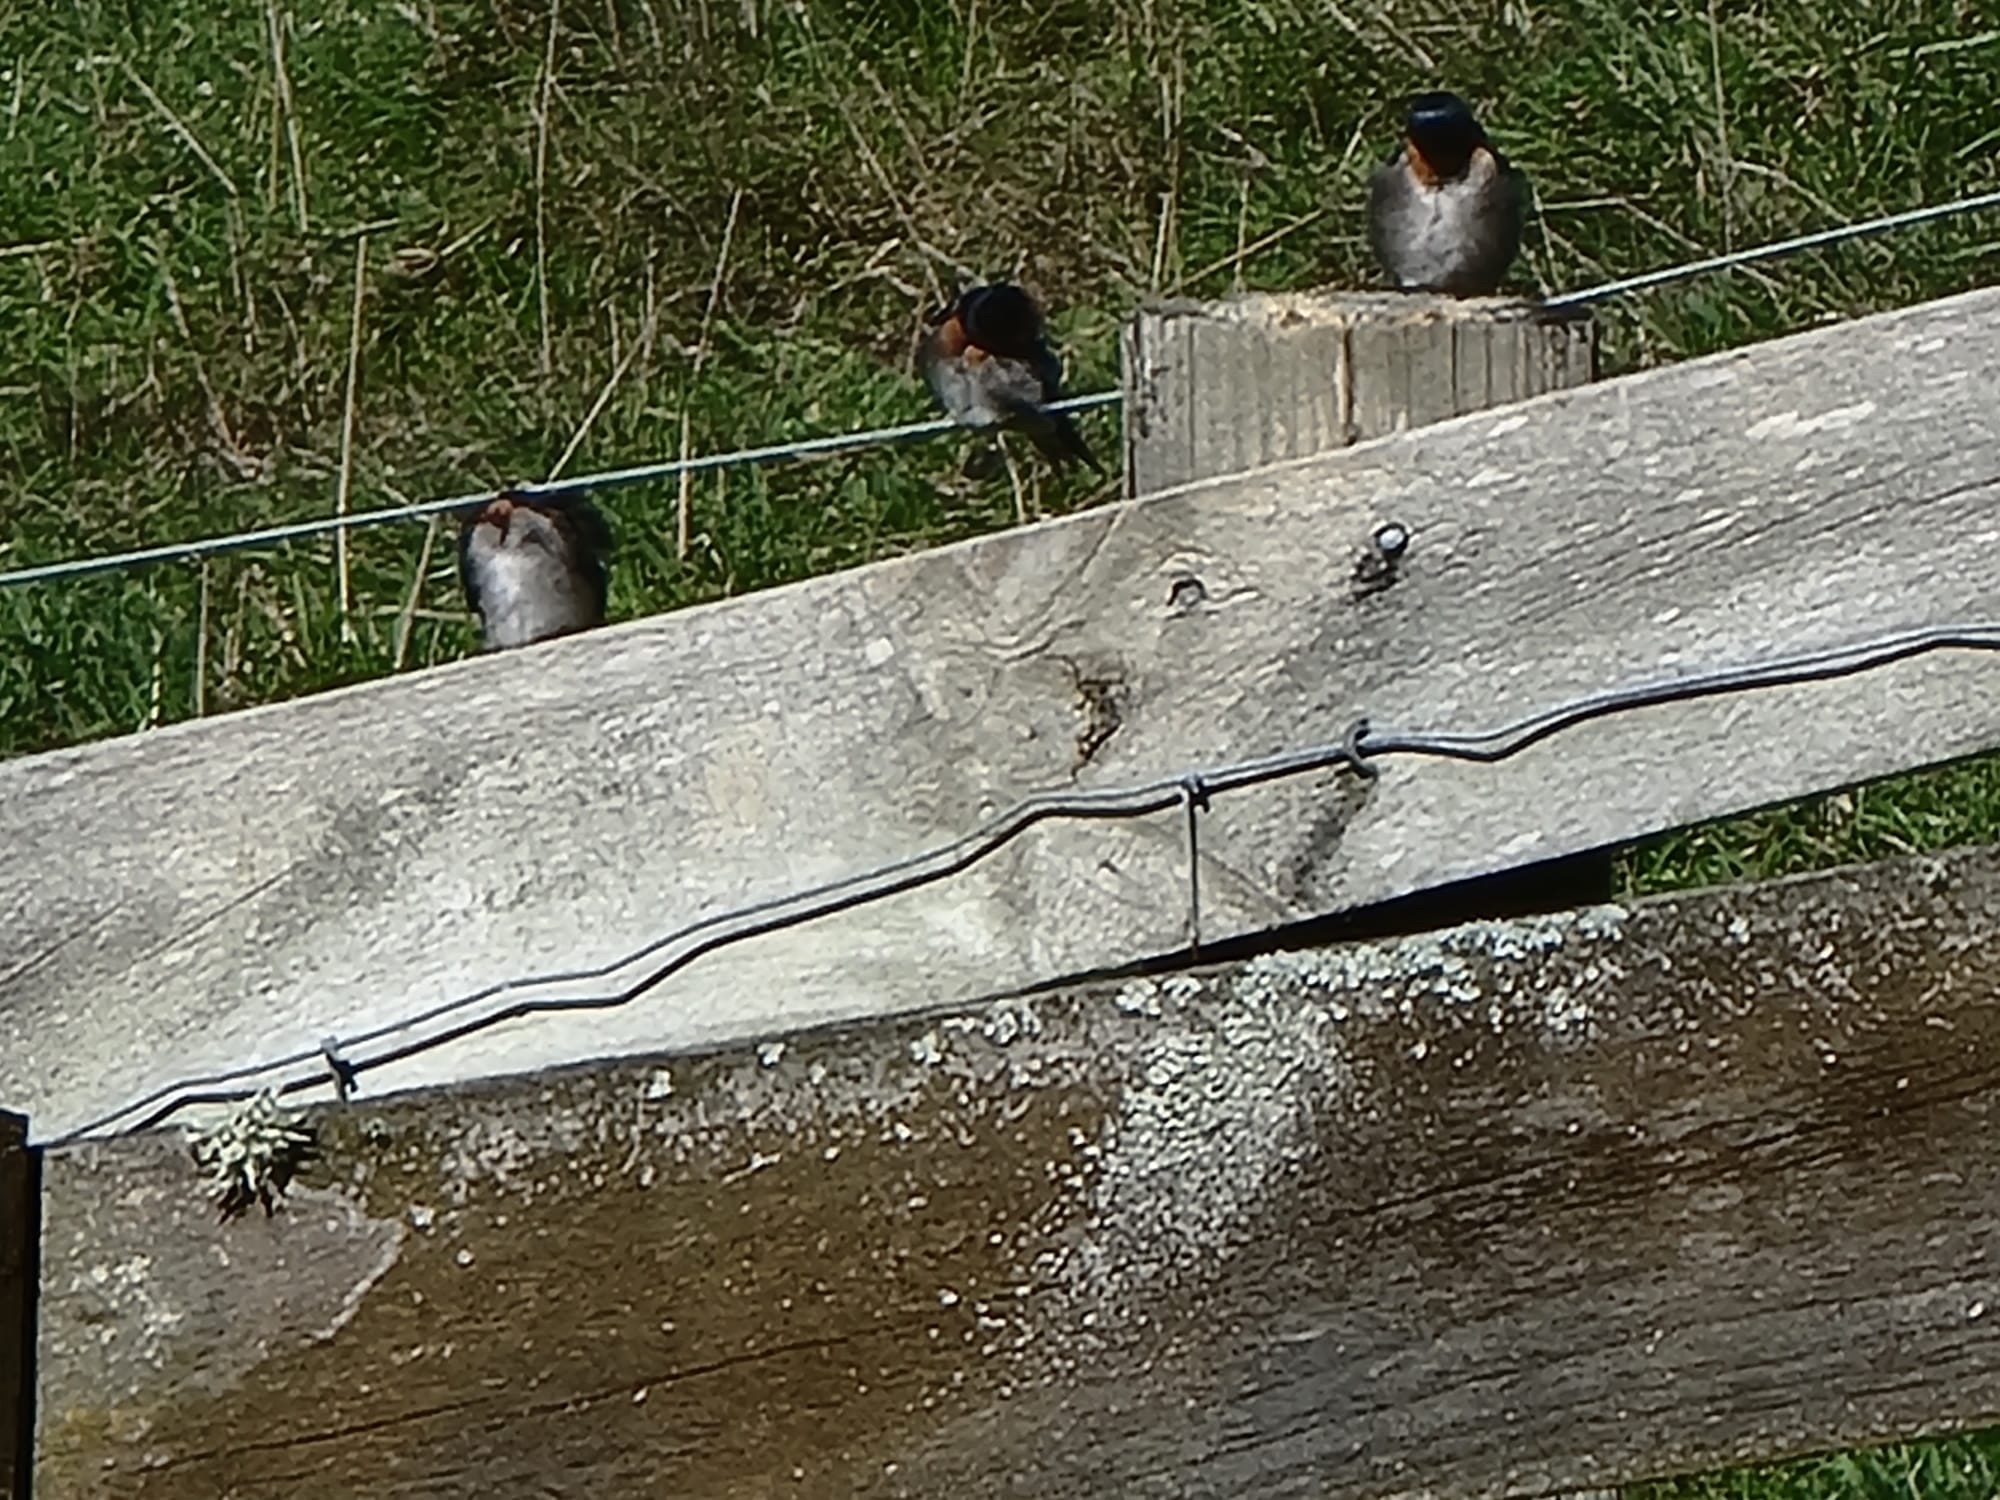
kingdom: Animalia
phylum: Chordata
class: Aves
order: Passeriformes
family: Hirundinidae
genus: Hirundo
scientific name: Hirundo neoxena
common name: Welcome swallow
